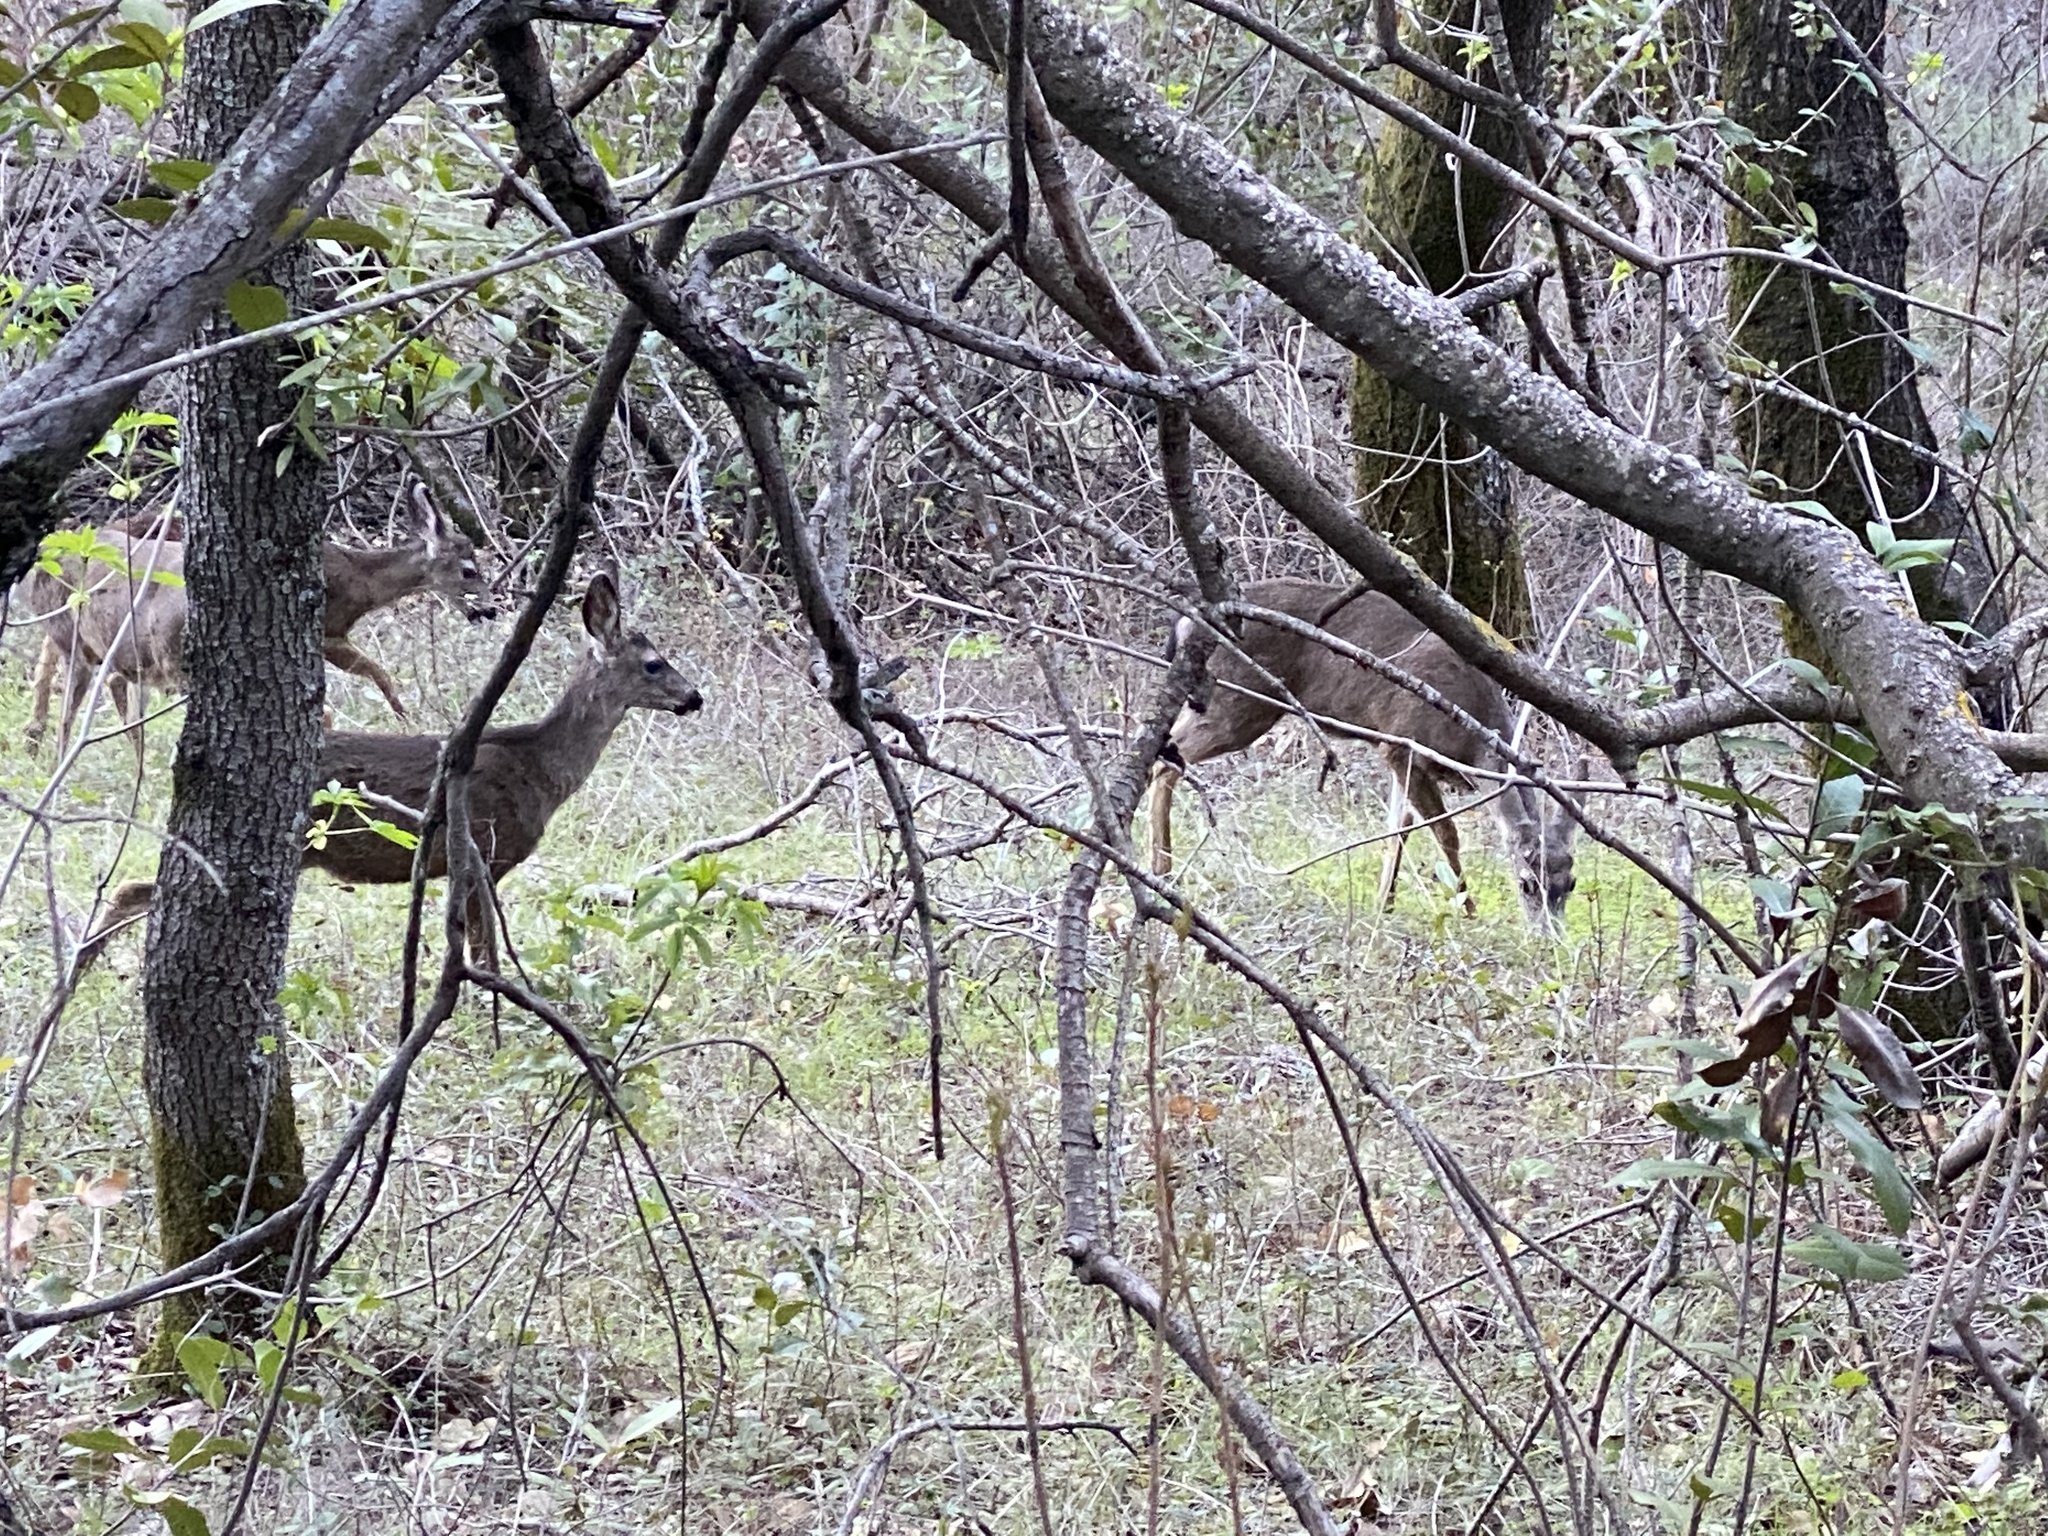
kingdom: Animalia
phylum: Chordata
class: Mammalia
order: Artiodactyla
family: Cervidae
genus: Odocoileus
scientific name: Odocoileus hemionus
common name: Mule deer
